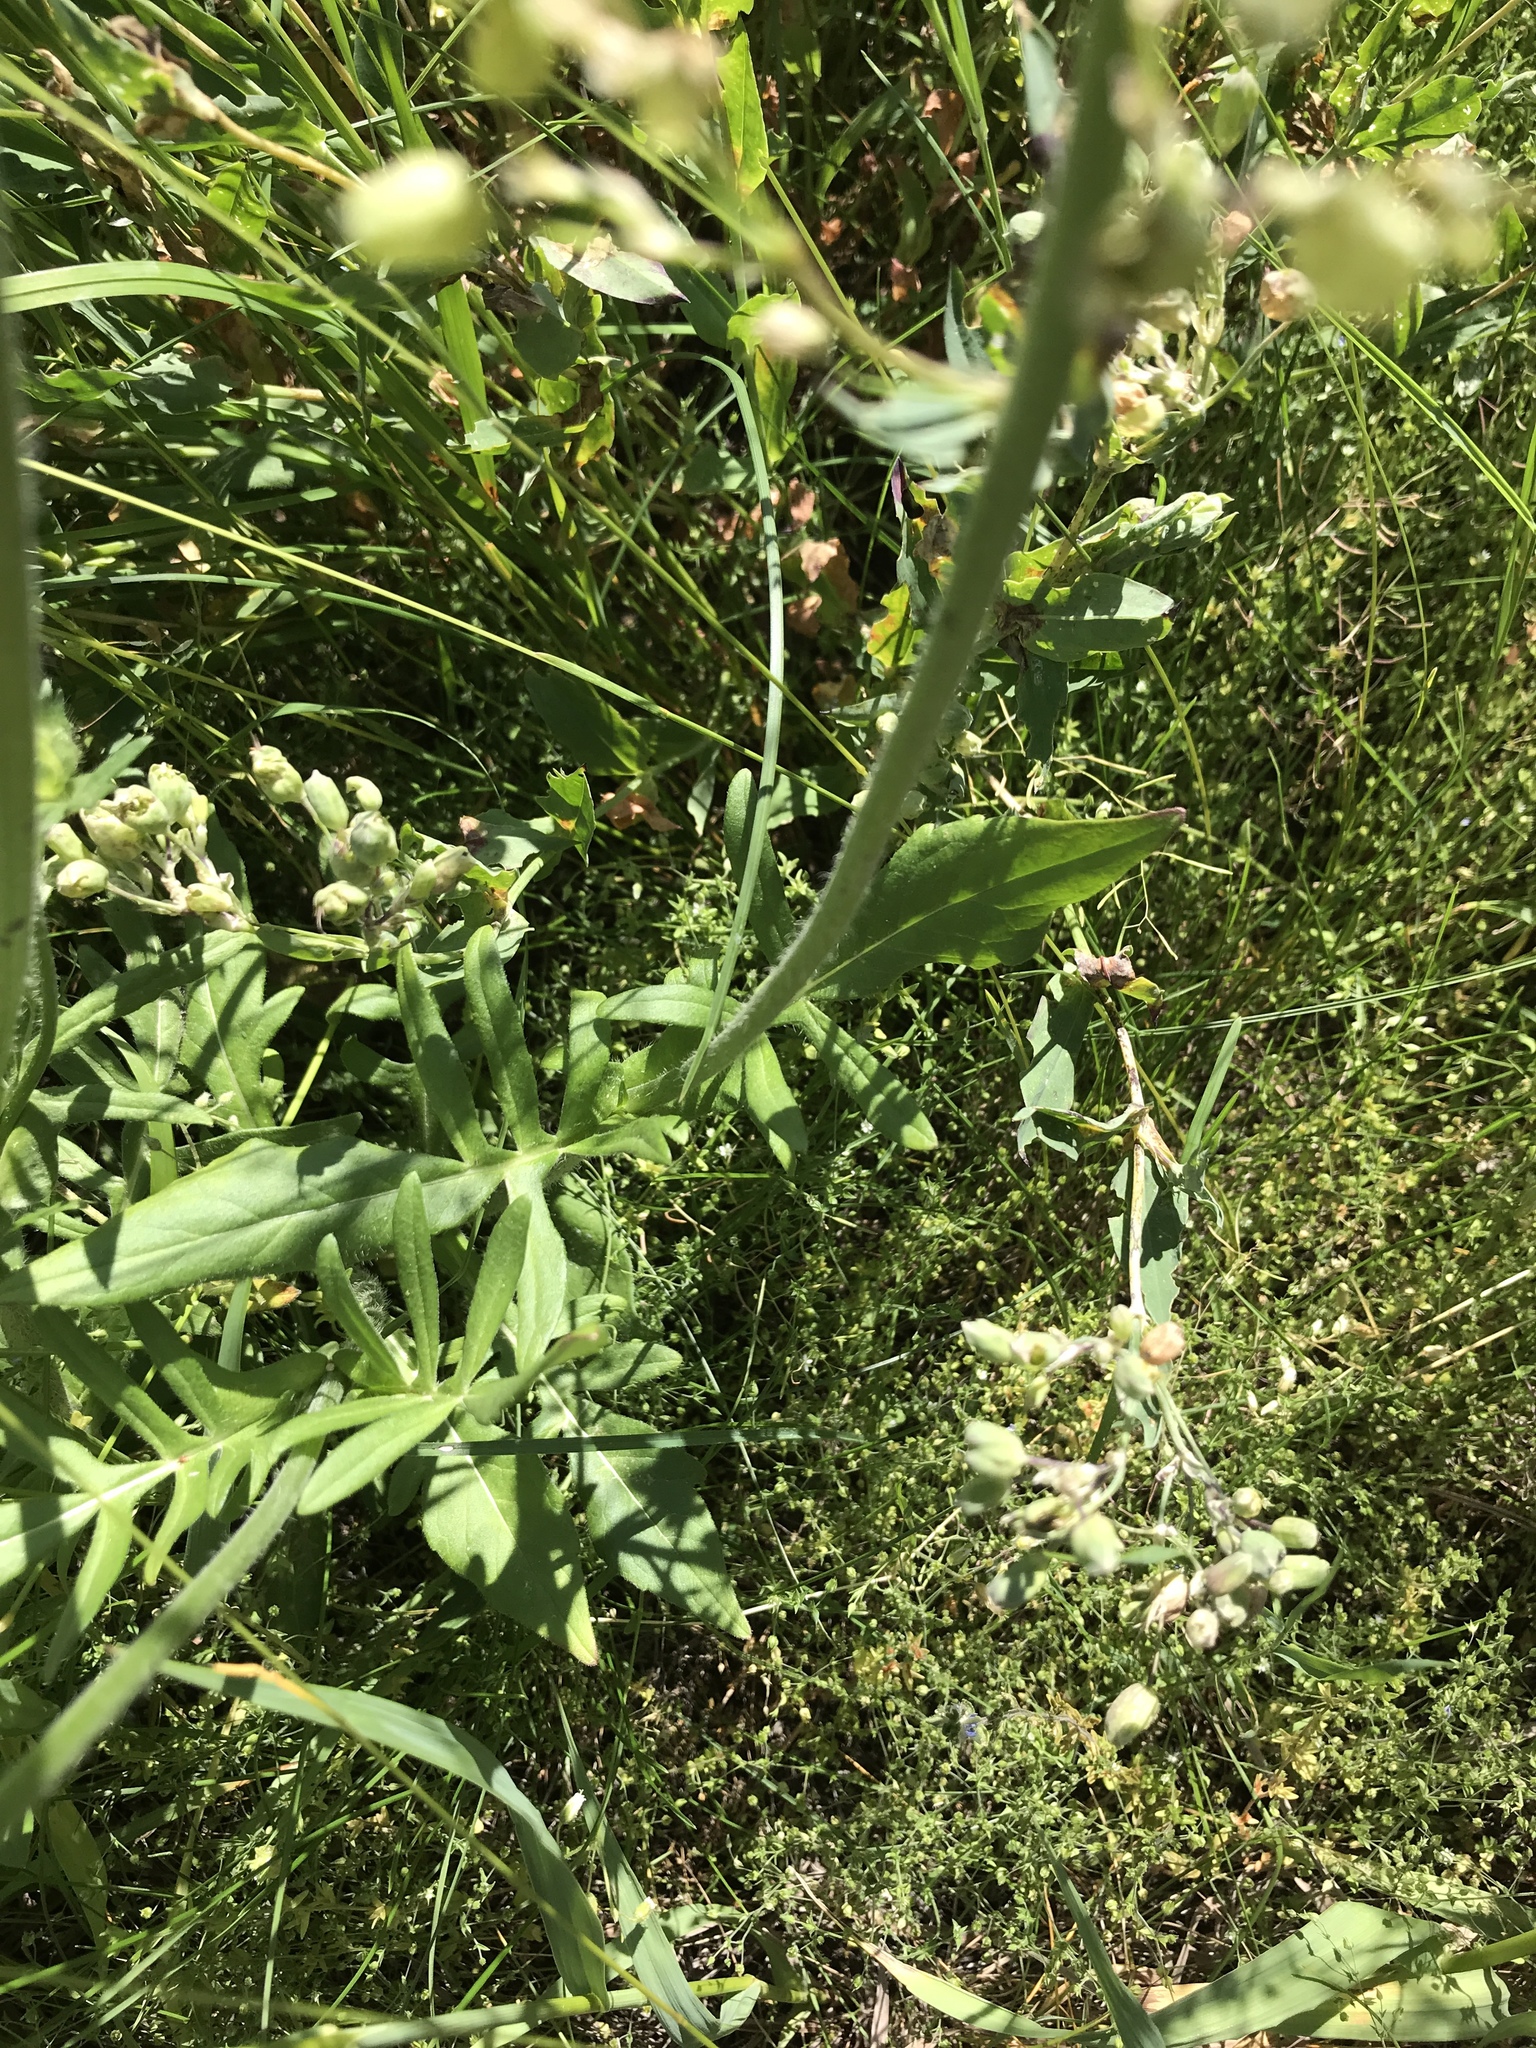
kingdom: Plantae
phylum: Tracheophyta
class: Magnoliopsida
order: Dipsacales
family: Caprifoliaceae
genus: Knautia
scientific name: Knautia arvensis
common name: Field scabiosa
